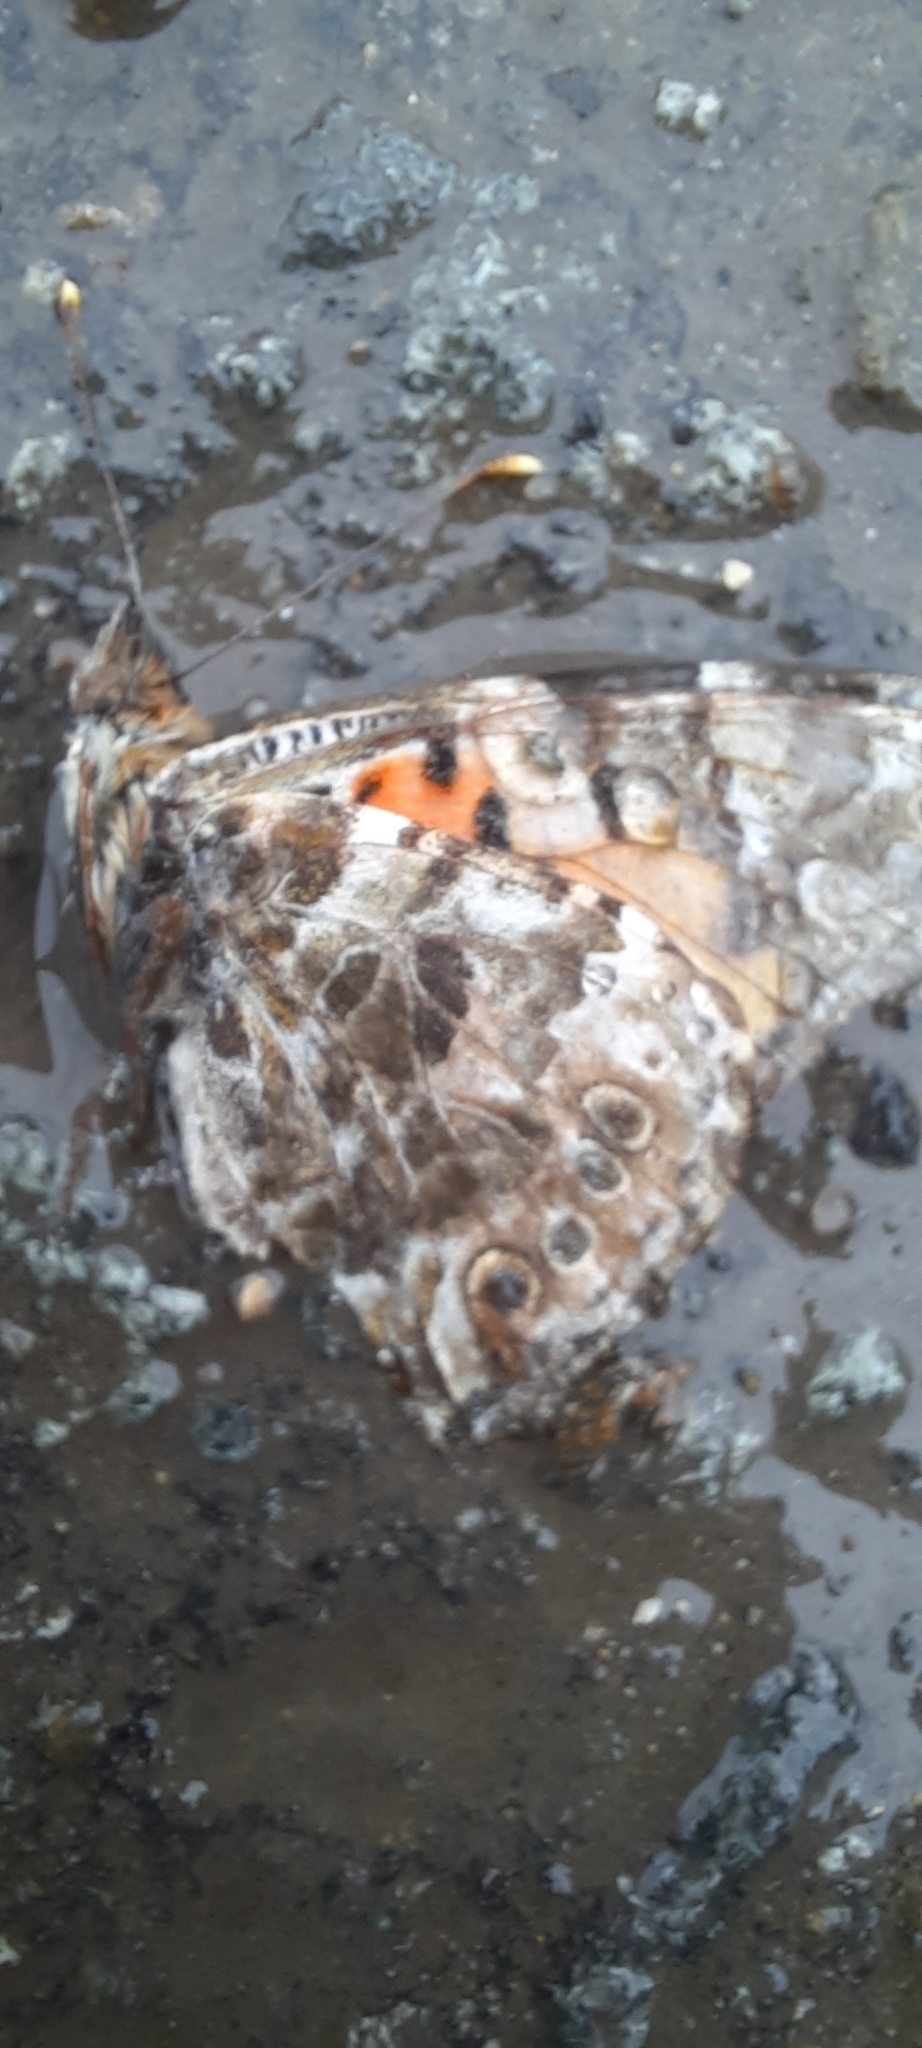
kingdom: Animalia
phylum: Arthropoda
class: Insecta
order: Lepidoptera
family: Nymphalidae
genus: Vanessa
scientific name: Vanessa cardui
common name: Painted lady
